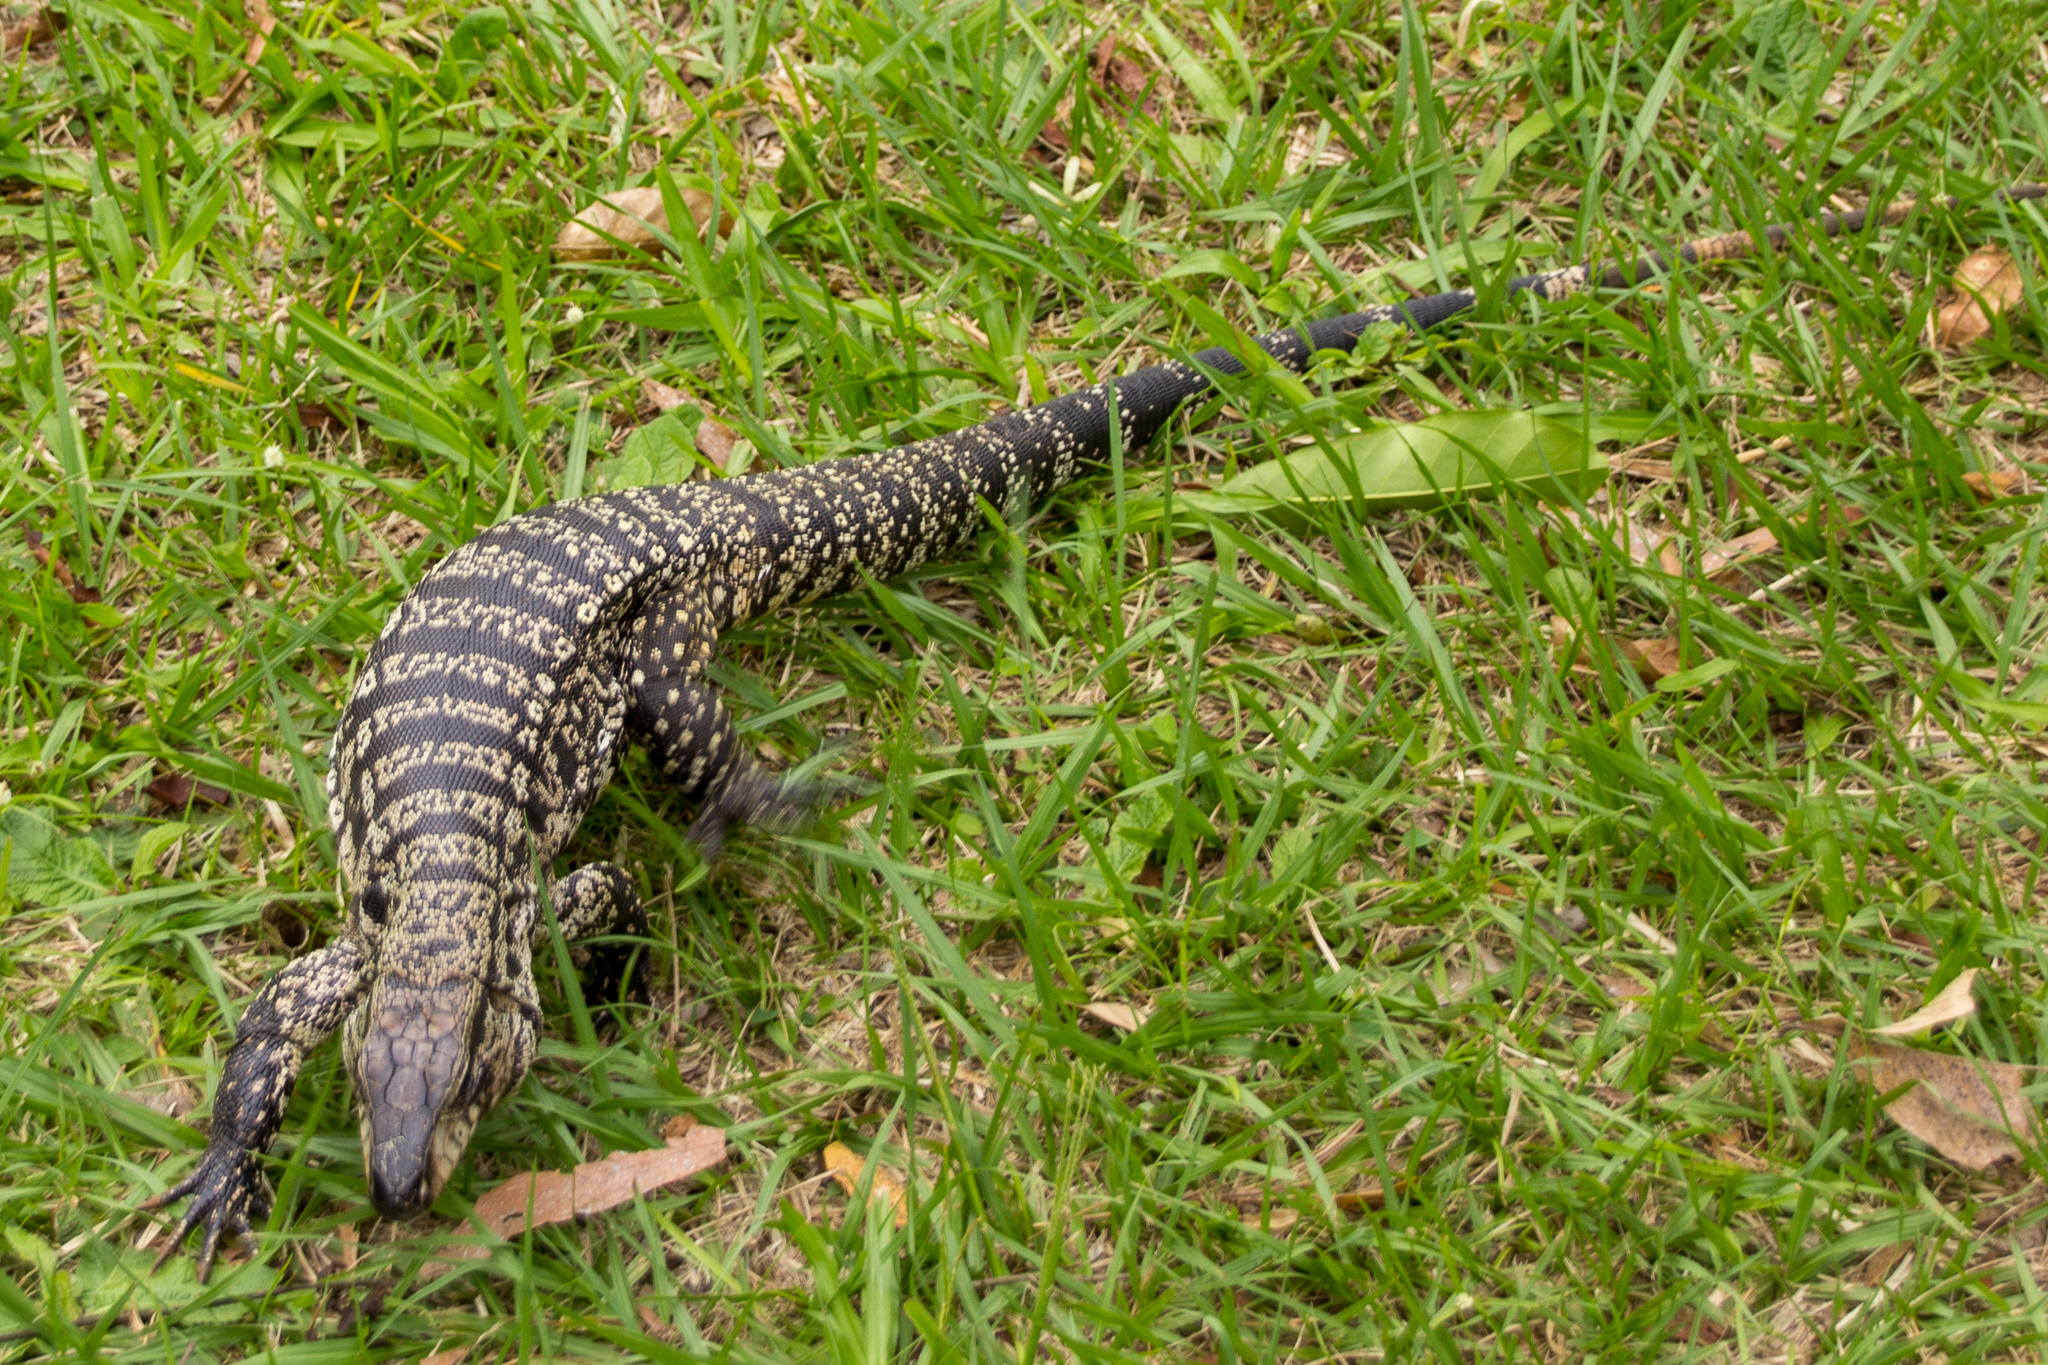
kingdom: Animalia
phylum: Chordata
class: Squamata
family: Teiidae
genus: Salvator
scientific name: Salvator merianae
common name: Argentine black and white tegu
